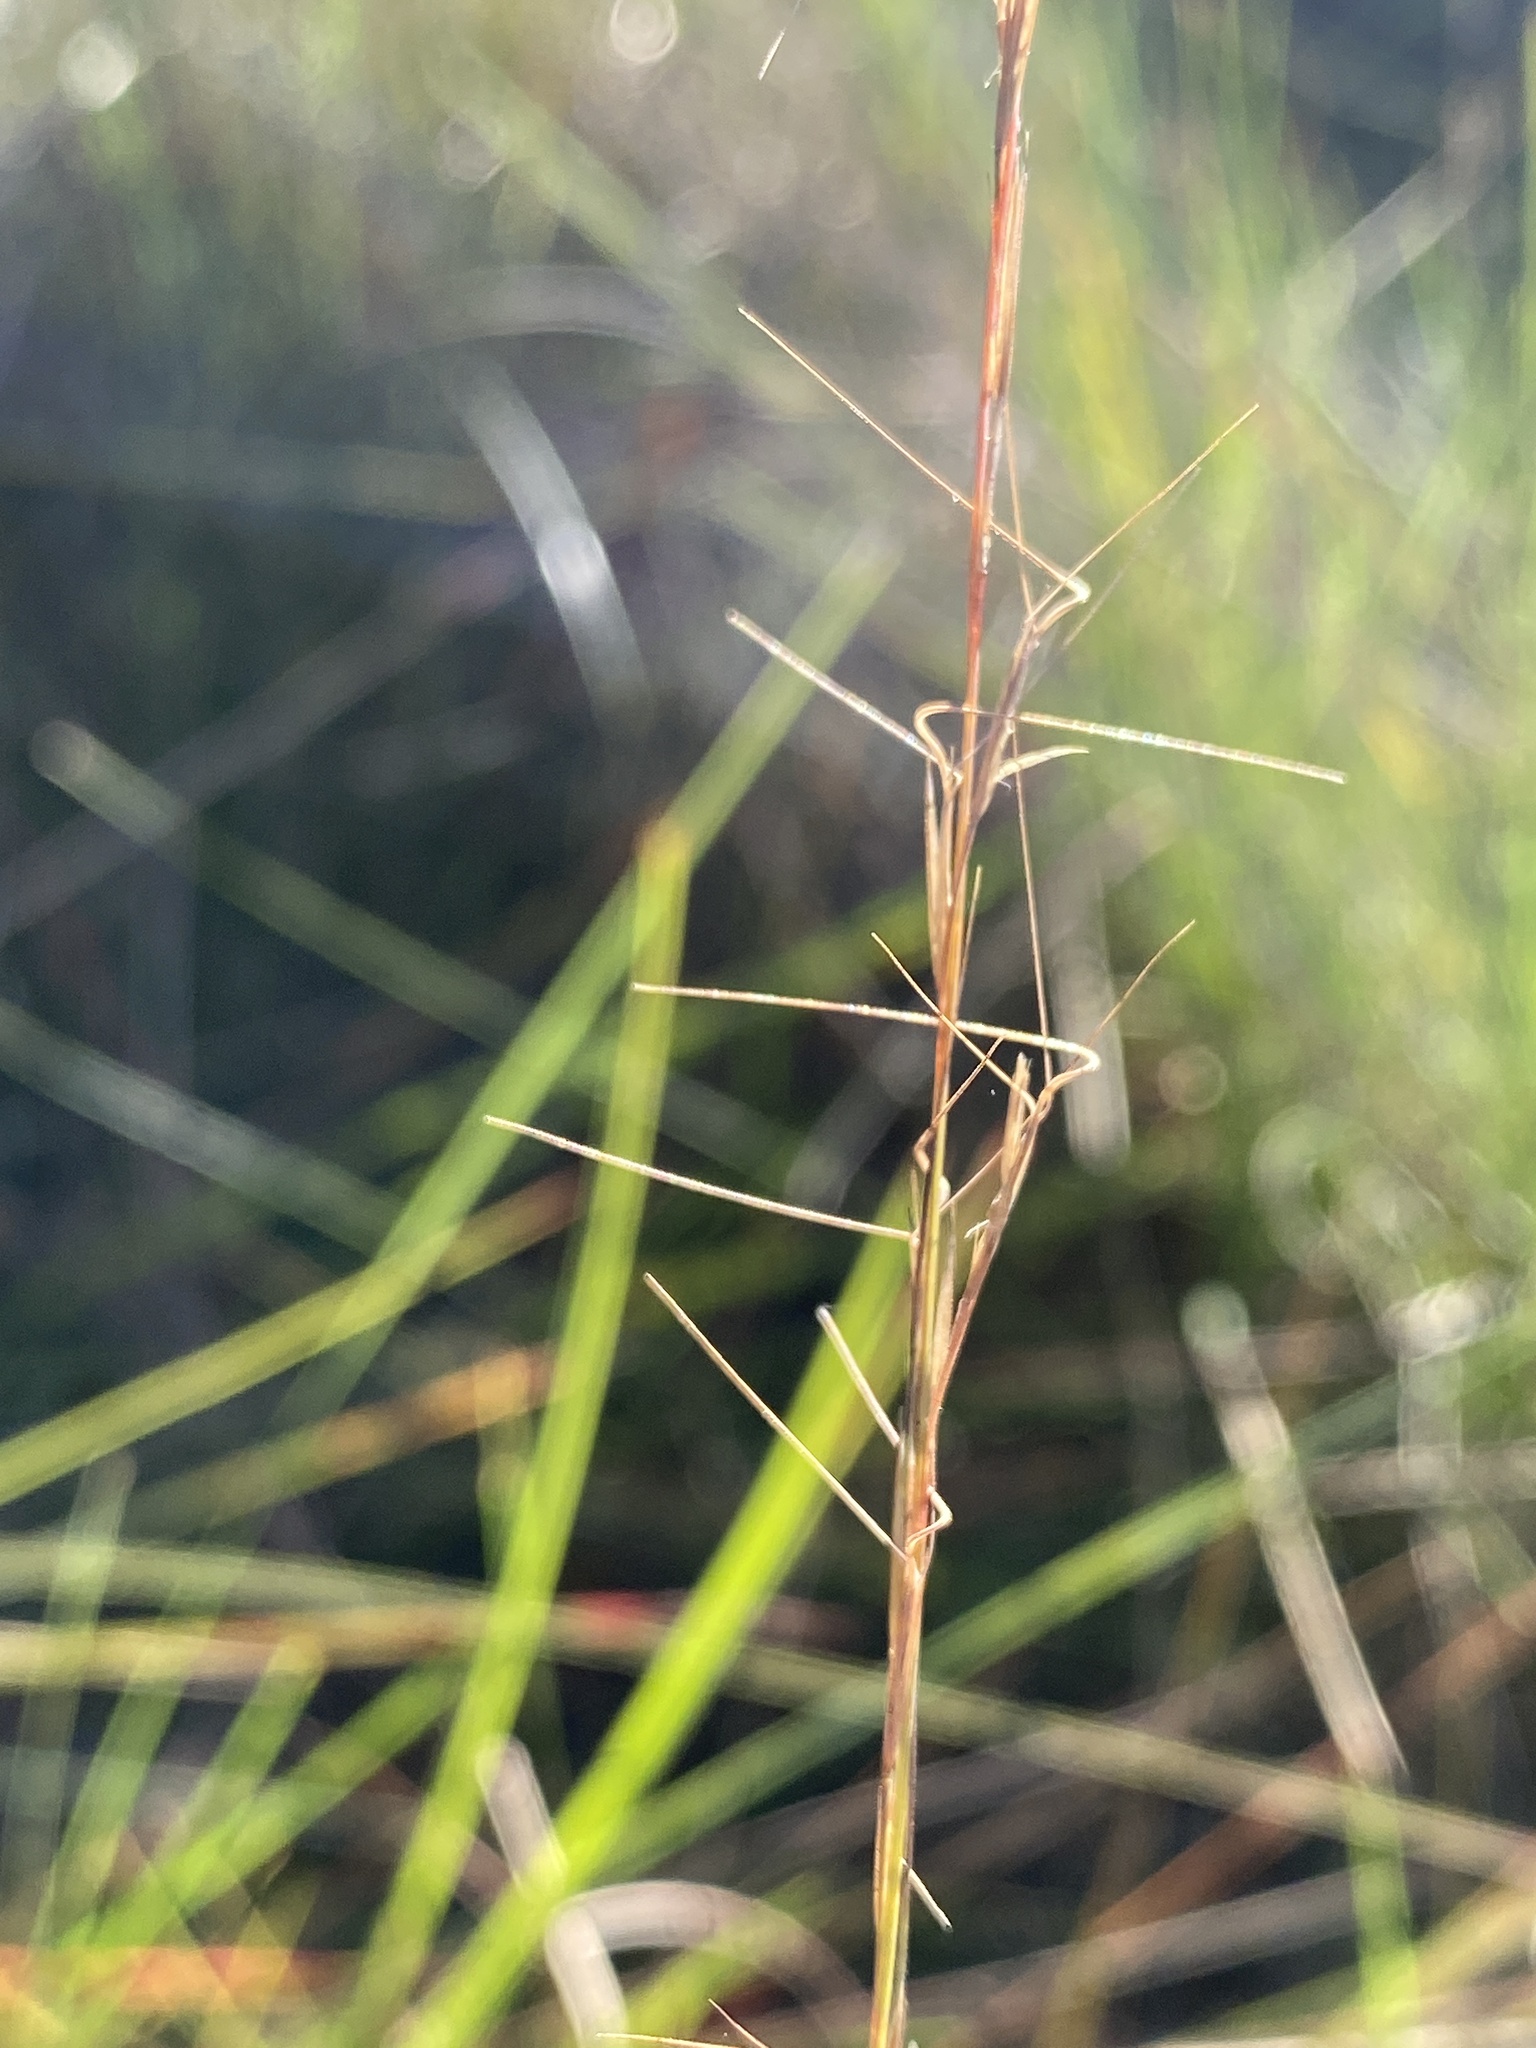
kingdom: Plantae
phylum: Tracheophyta
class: Liliopsida
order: Poales
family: Poaceae
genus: Aristida
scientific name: Aristida simpliciflora
